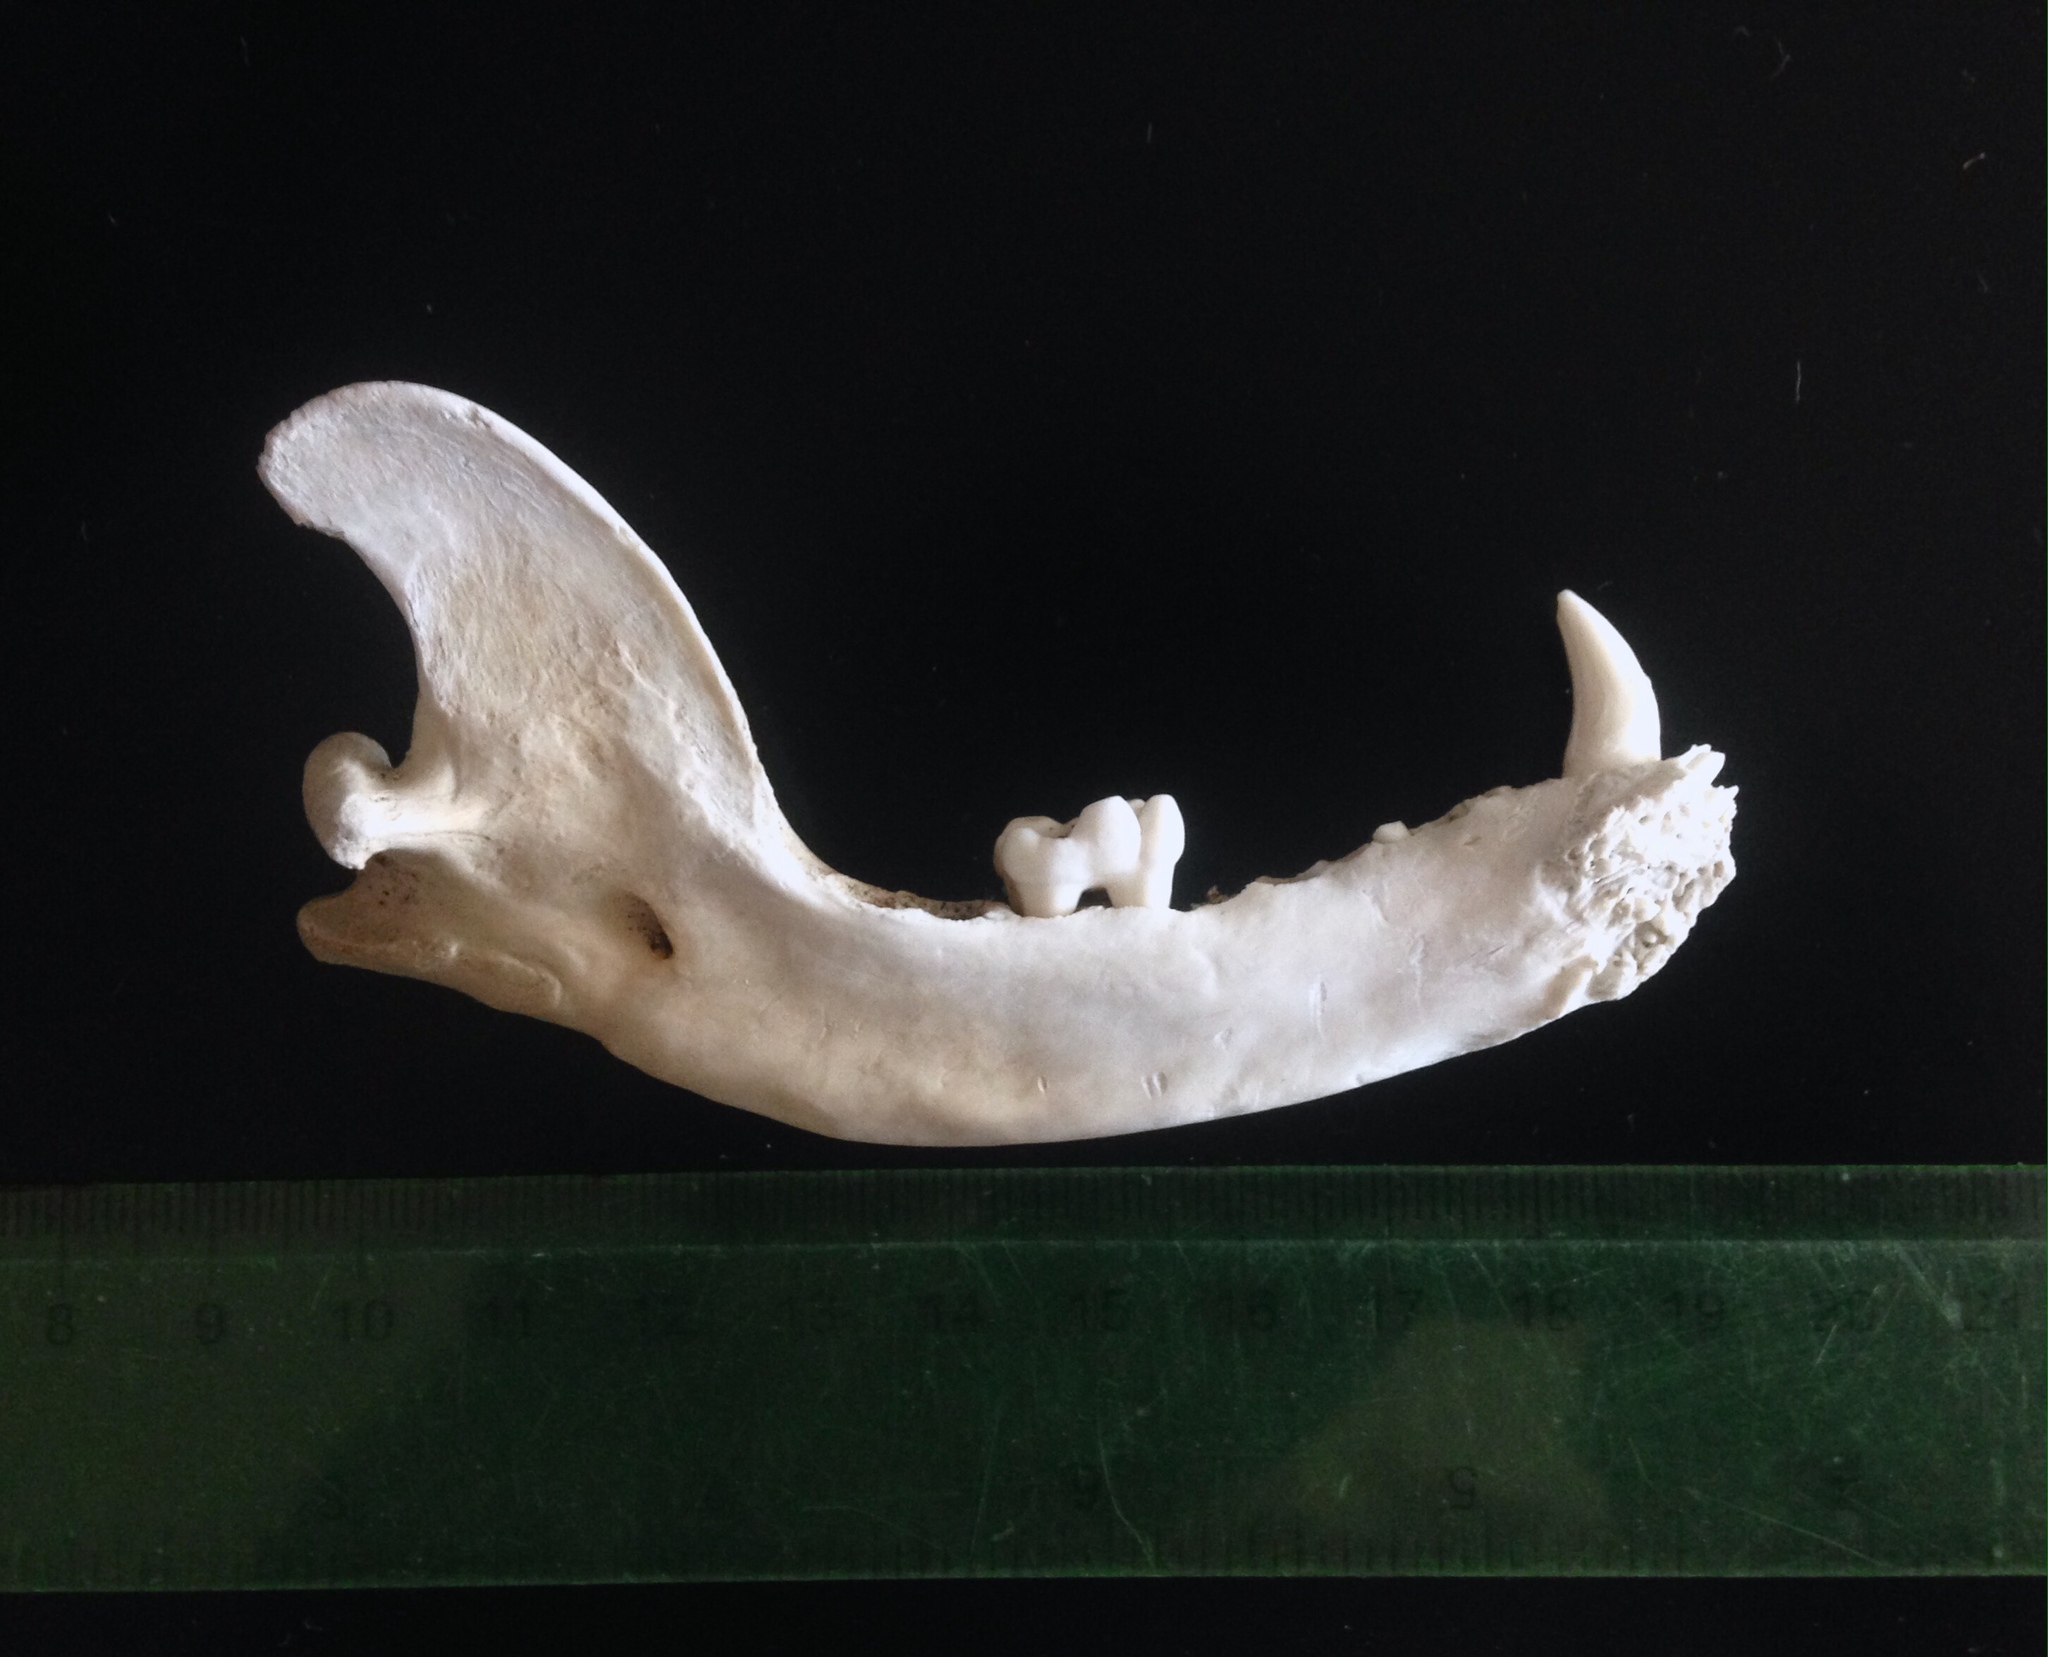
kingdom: Animalia
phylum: Chordata
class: Mammalia
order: Carnivora
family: Procyonidae
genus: Procyon
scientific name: Procyon cancrivorus
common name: Crab-eating raccoon
